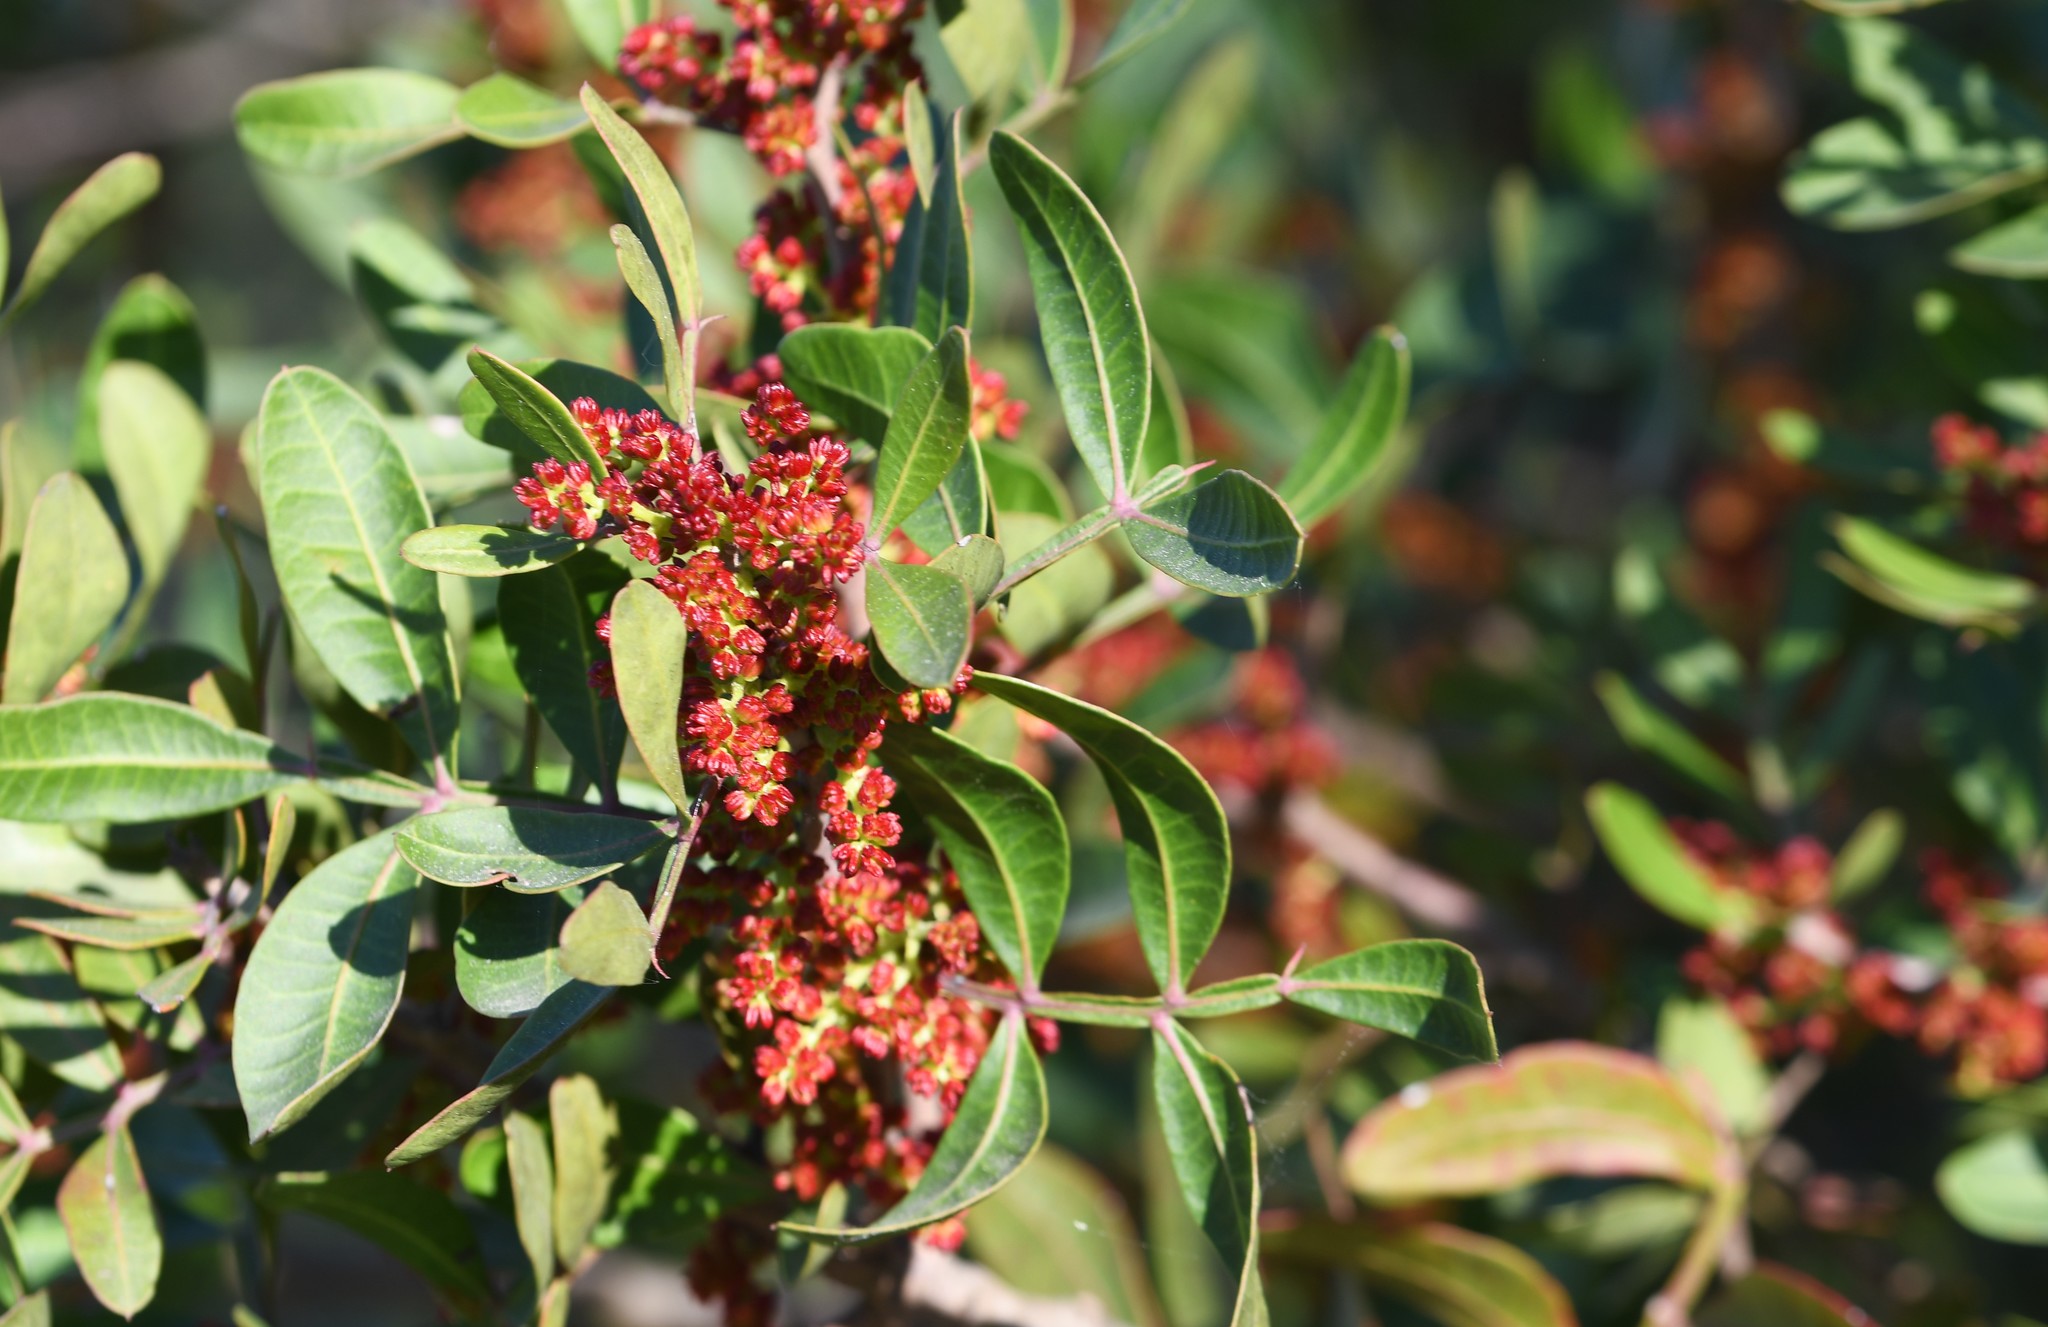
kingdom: Plantae
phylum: Tracheophyta
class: Magnoliopsida
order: Sapindales
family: Anacardiaceae
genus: Pistacia
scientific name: Pistacia lentiscus
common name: Lentisk
